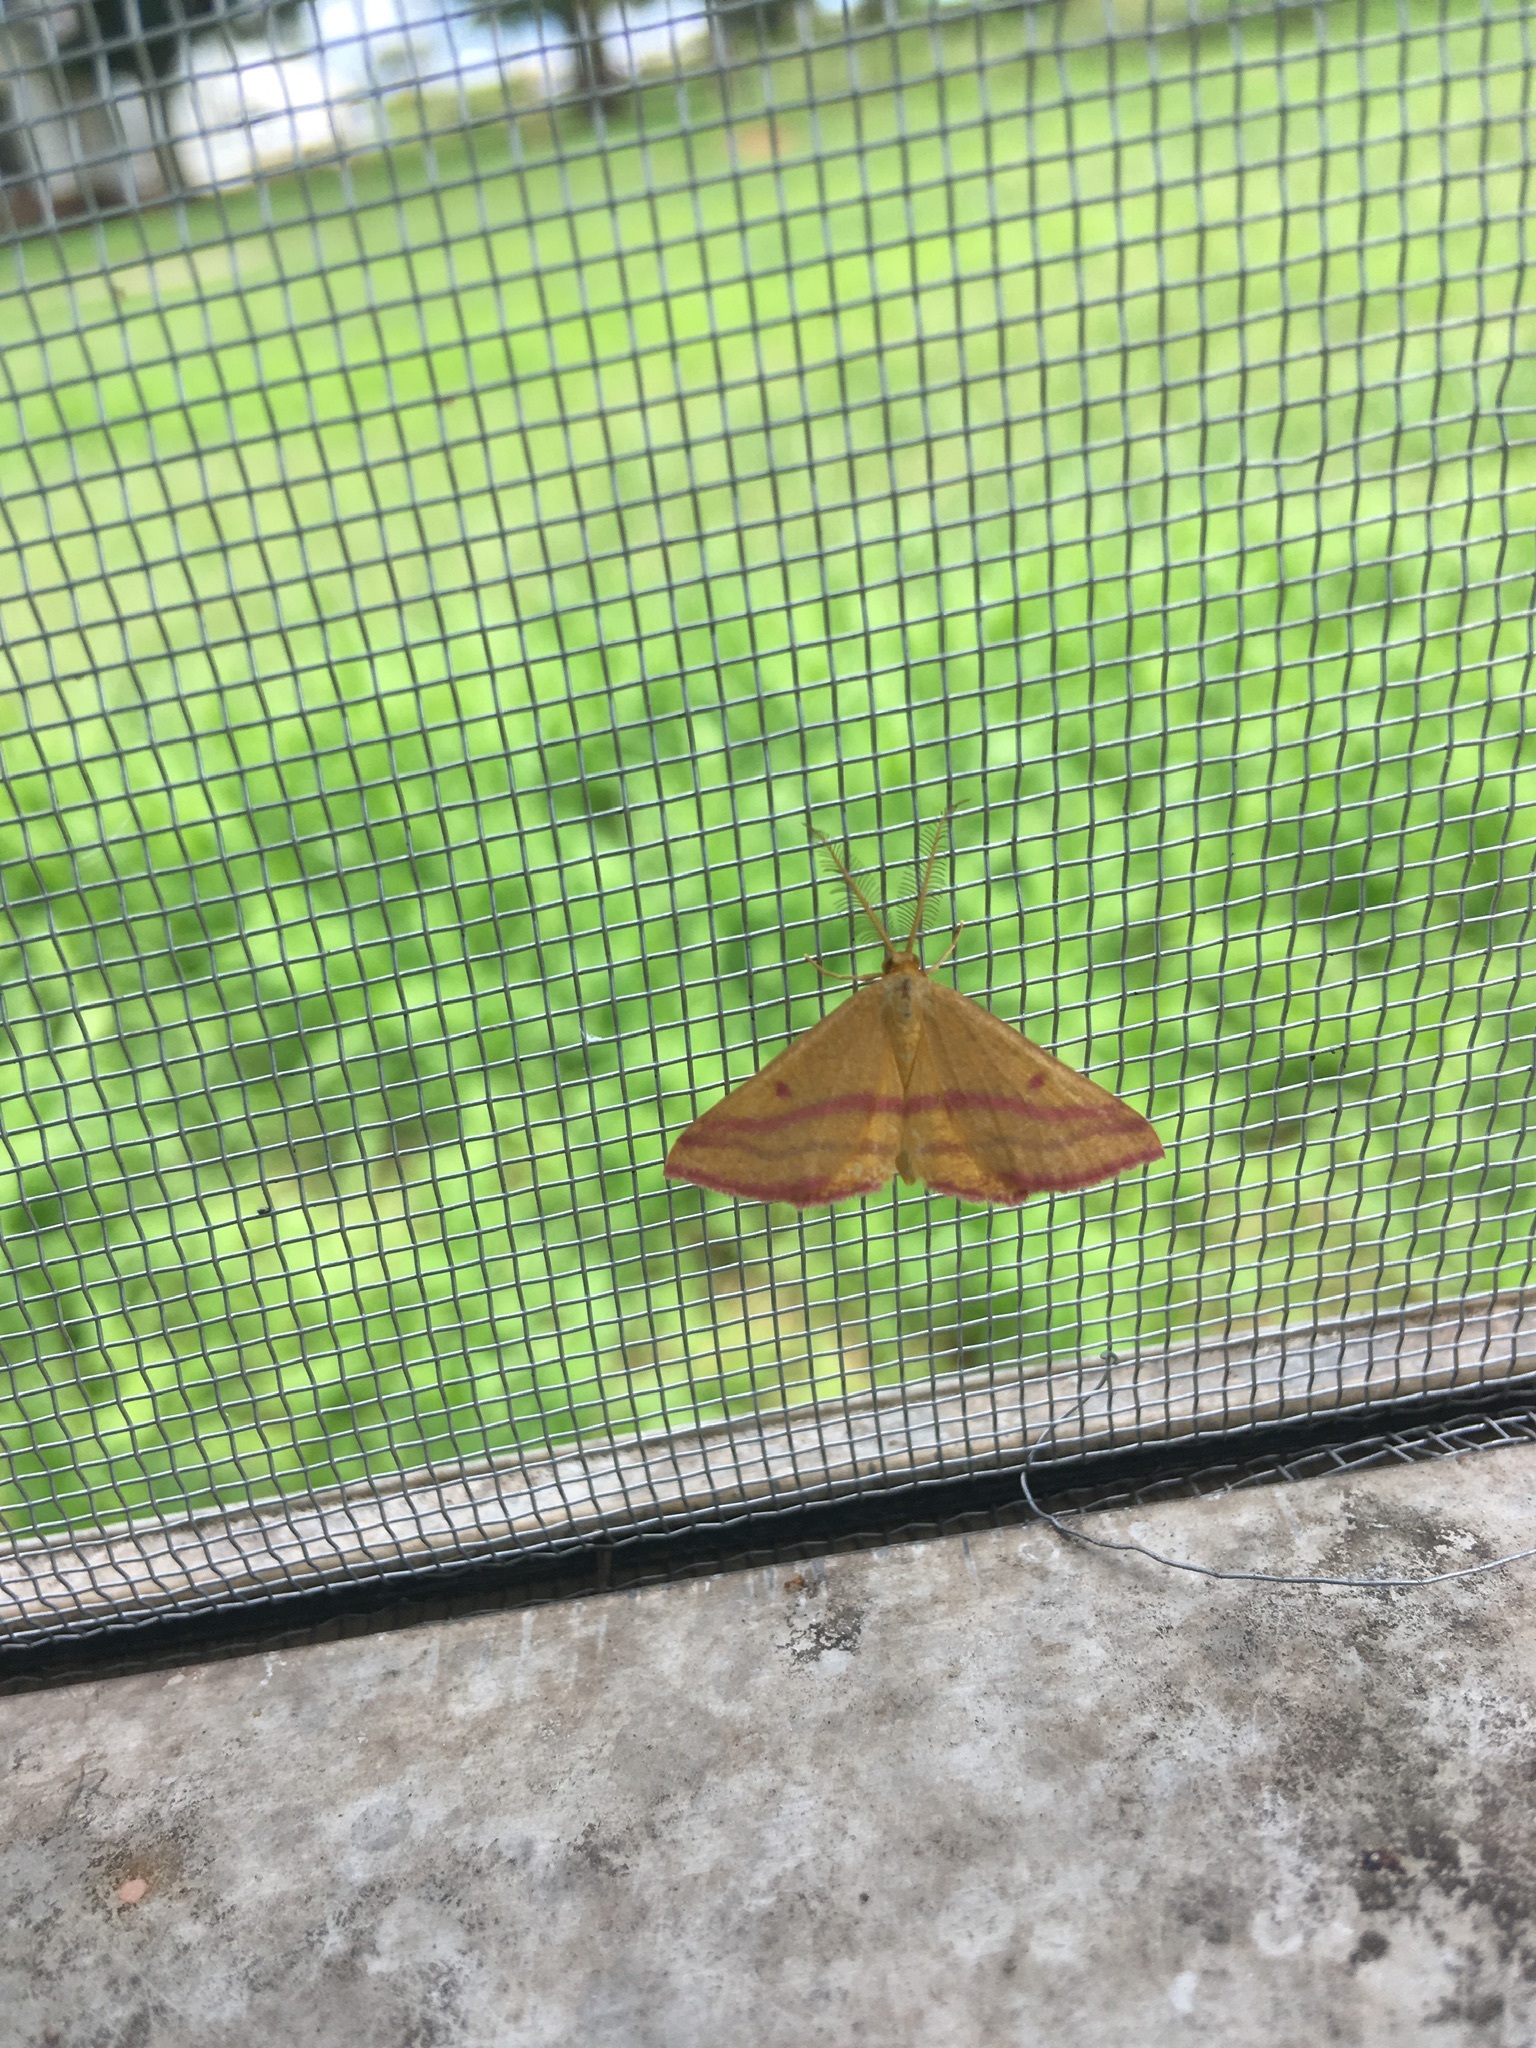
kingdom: Animalia
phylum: Arthropoda
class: Insecta
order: Lepidoptera
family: Geometridae
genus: Haematopis
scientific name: Haematopis grataria
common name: Chickweed geometer
